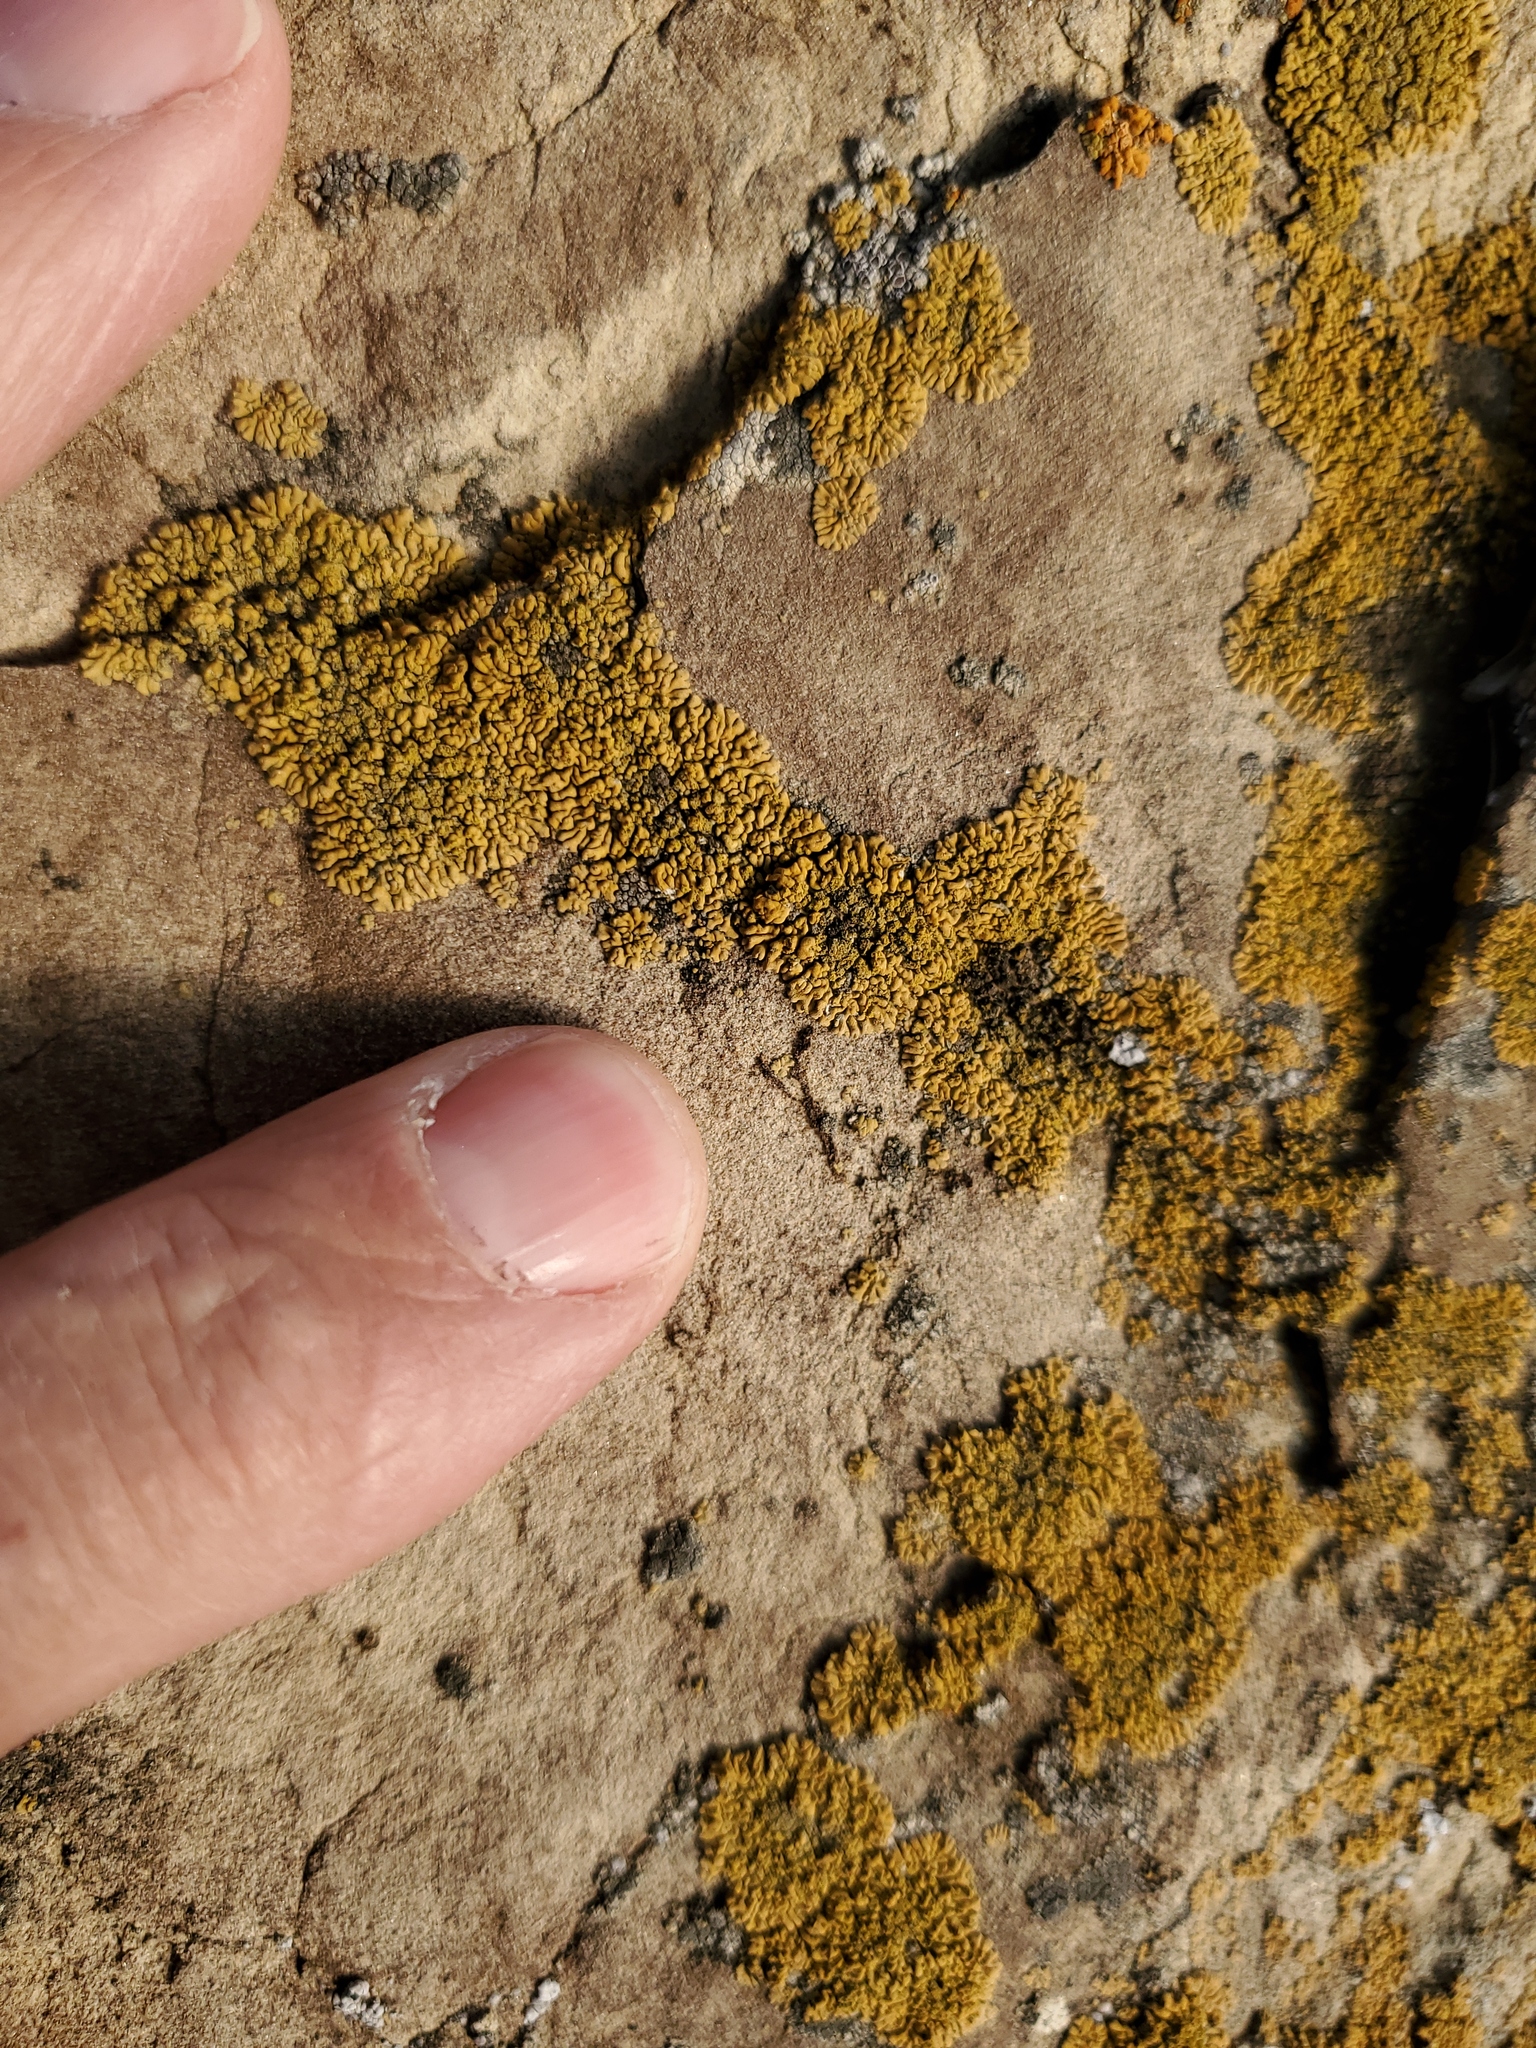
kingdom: Fungi
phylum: Ascomycota
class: Candelariomycetes
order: Candelariales
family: Candelariaceae
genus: Candelariella
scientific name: Candelariella rosulans
